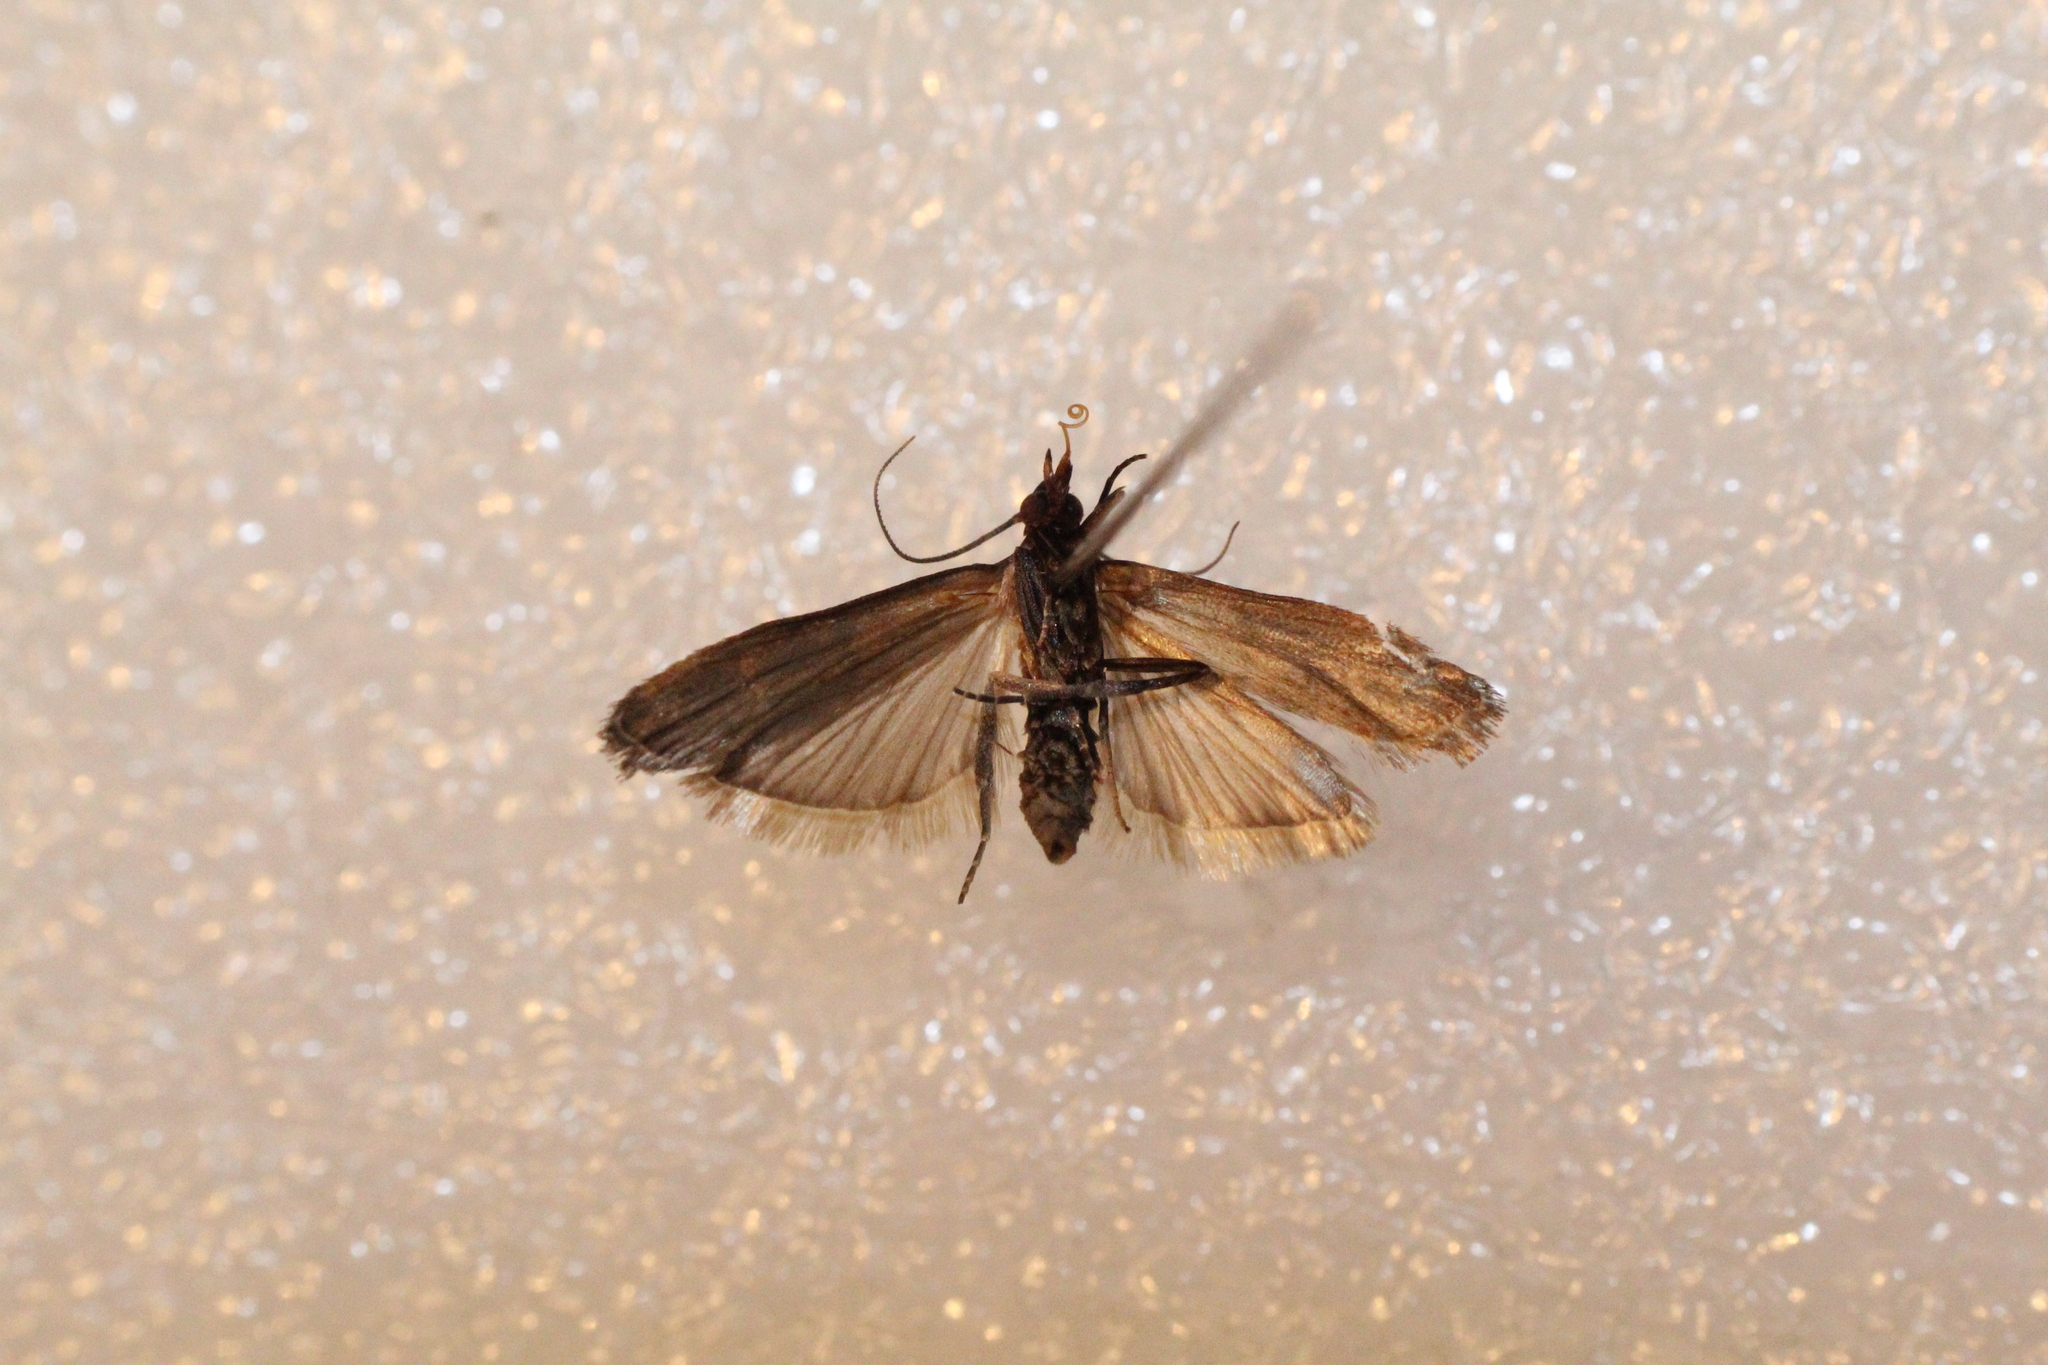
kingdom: Animalia
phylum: Arthropoda
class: Insecta
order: Lepidoptera
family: Pyralidae
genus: Plodia
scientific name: Plodia interpunctella
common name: Indian meal moth
